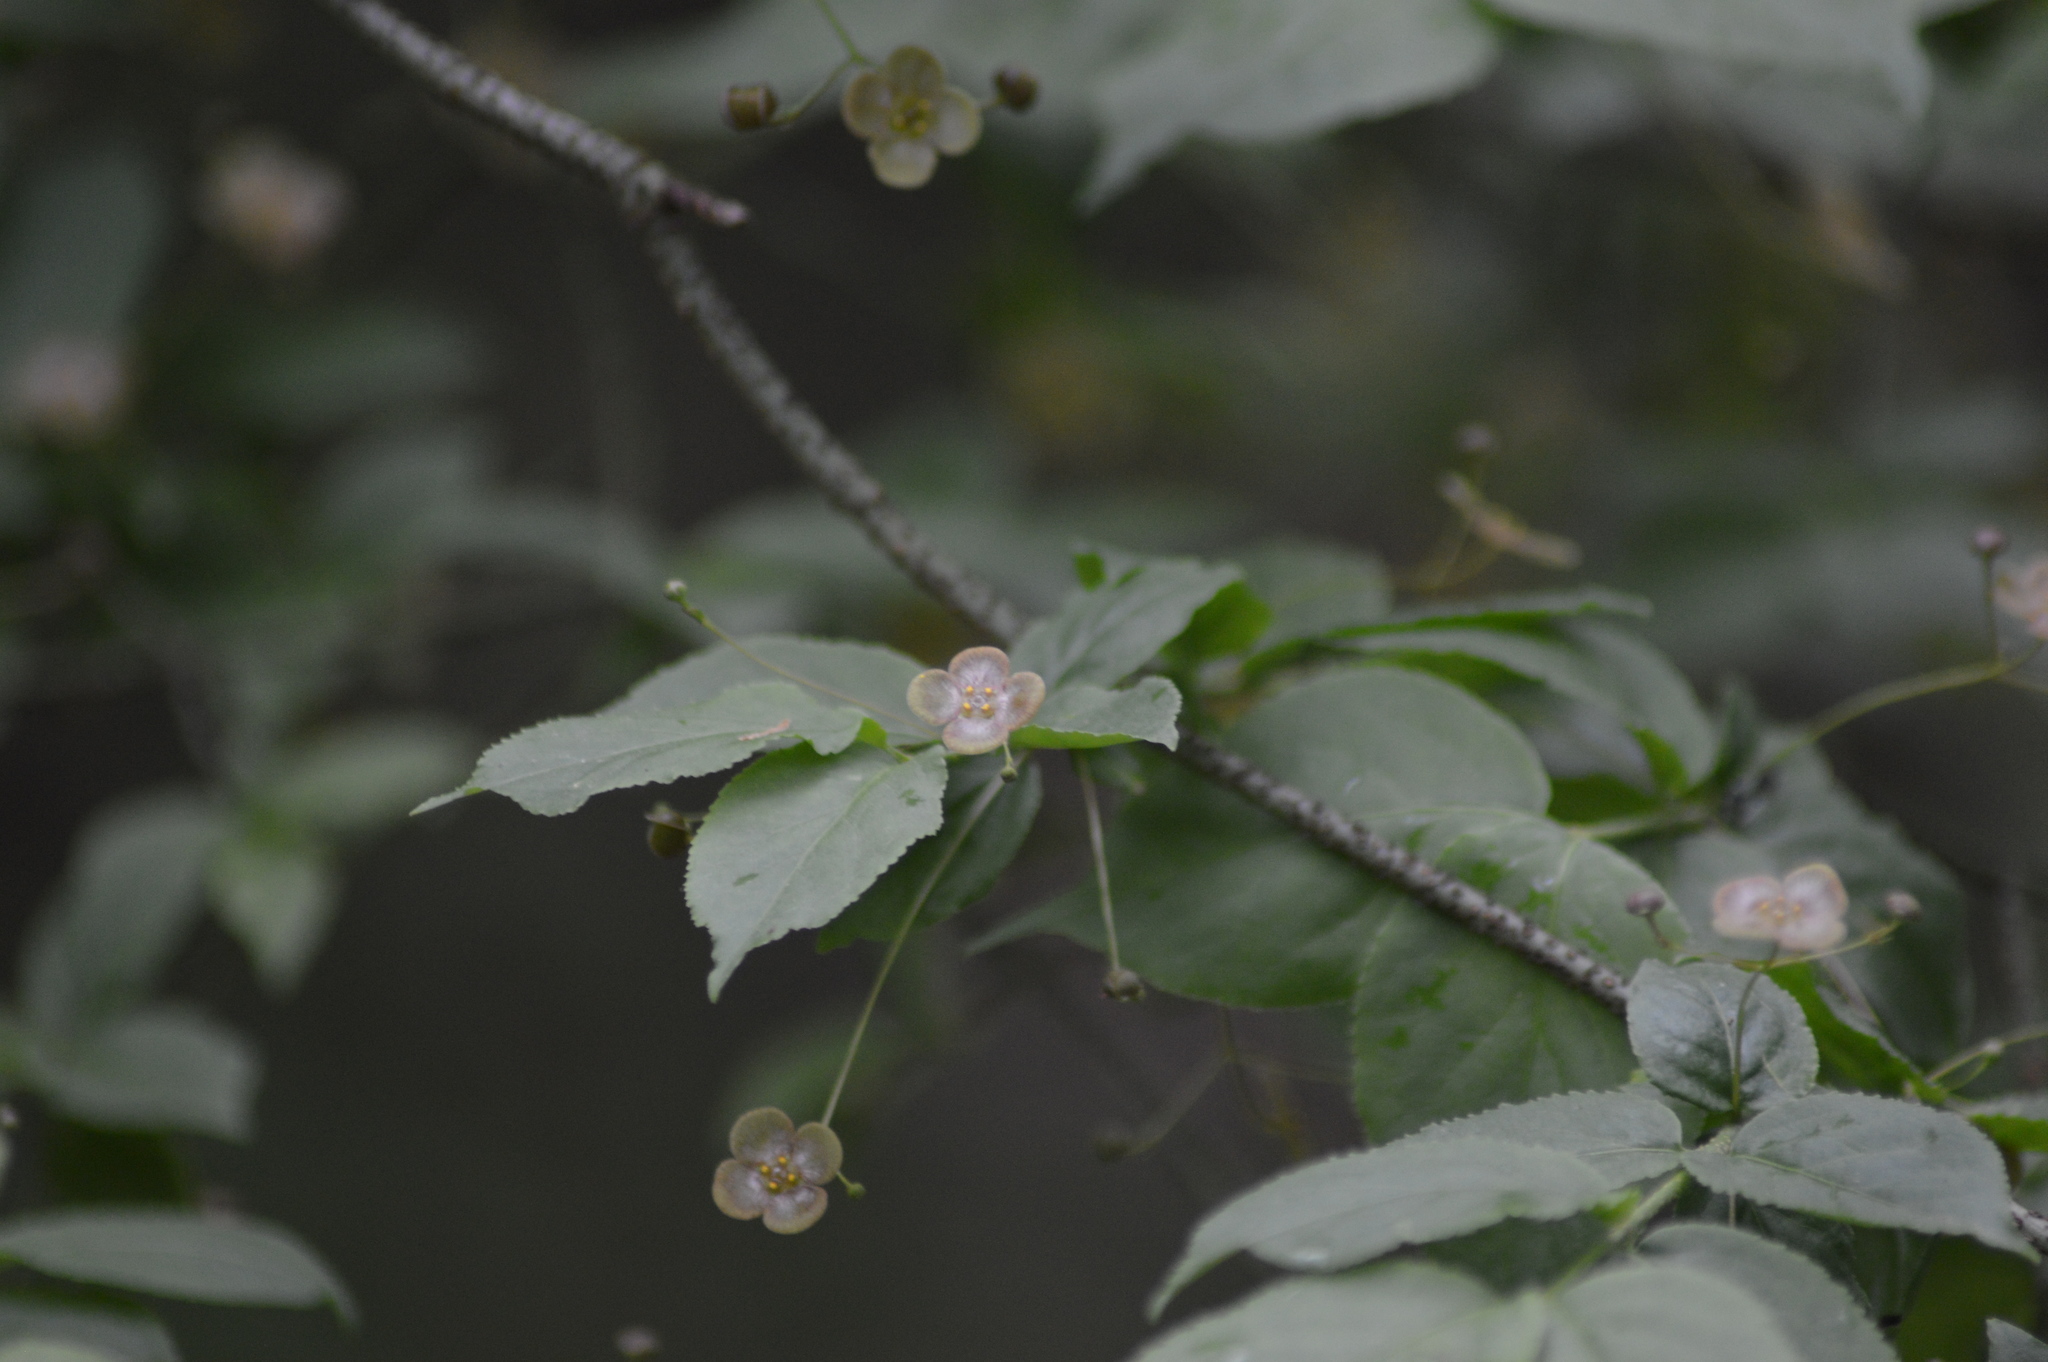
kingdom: Plantae
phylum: Tracheophyta
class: Magnoliopsida
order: Celastrales
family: Celastraceae
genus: Euonymus
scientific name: Euonymus verrucosus
